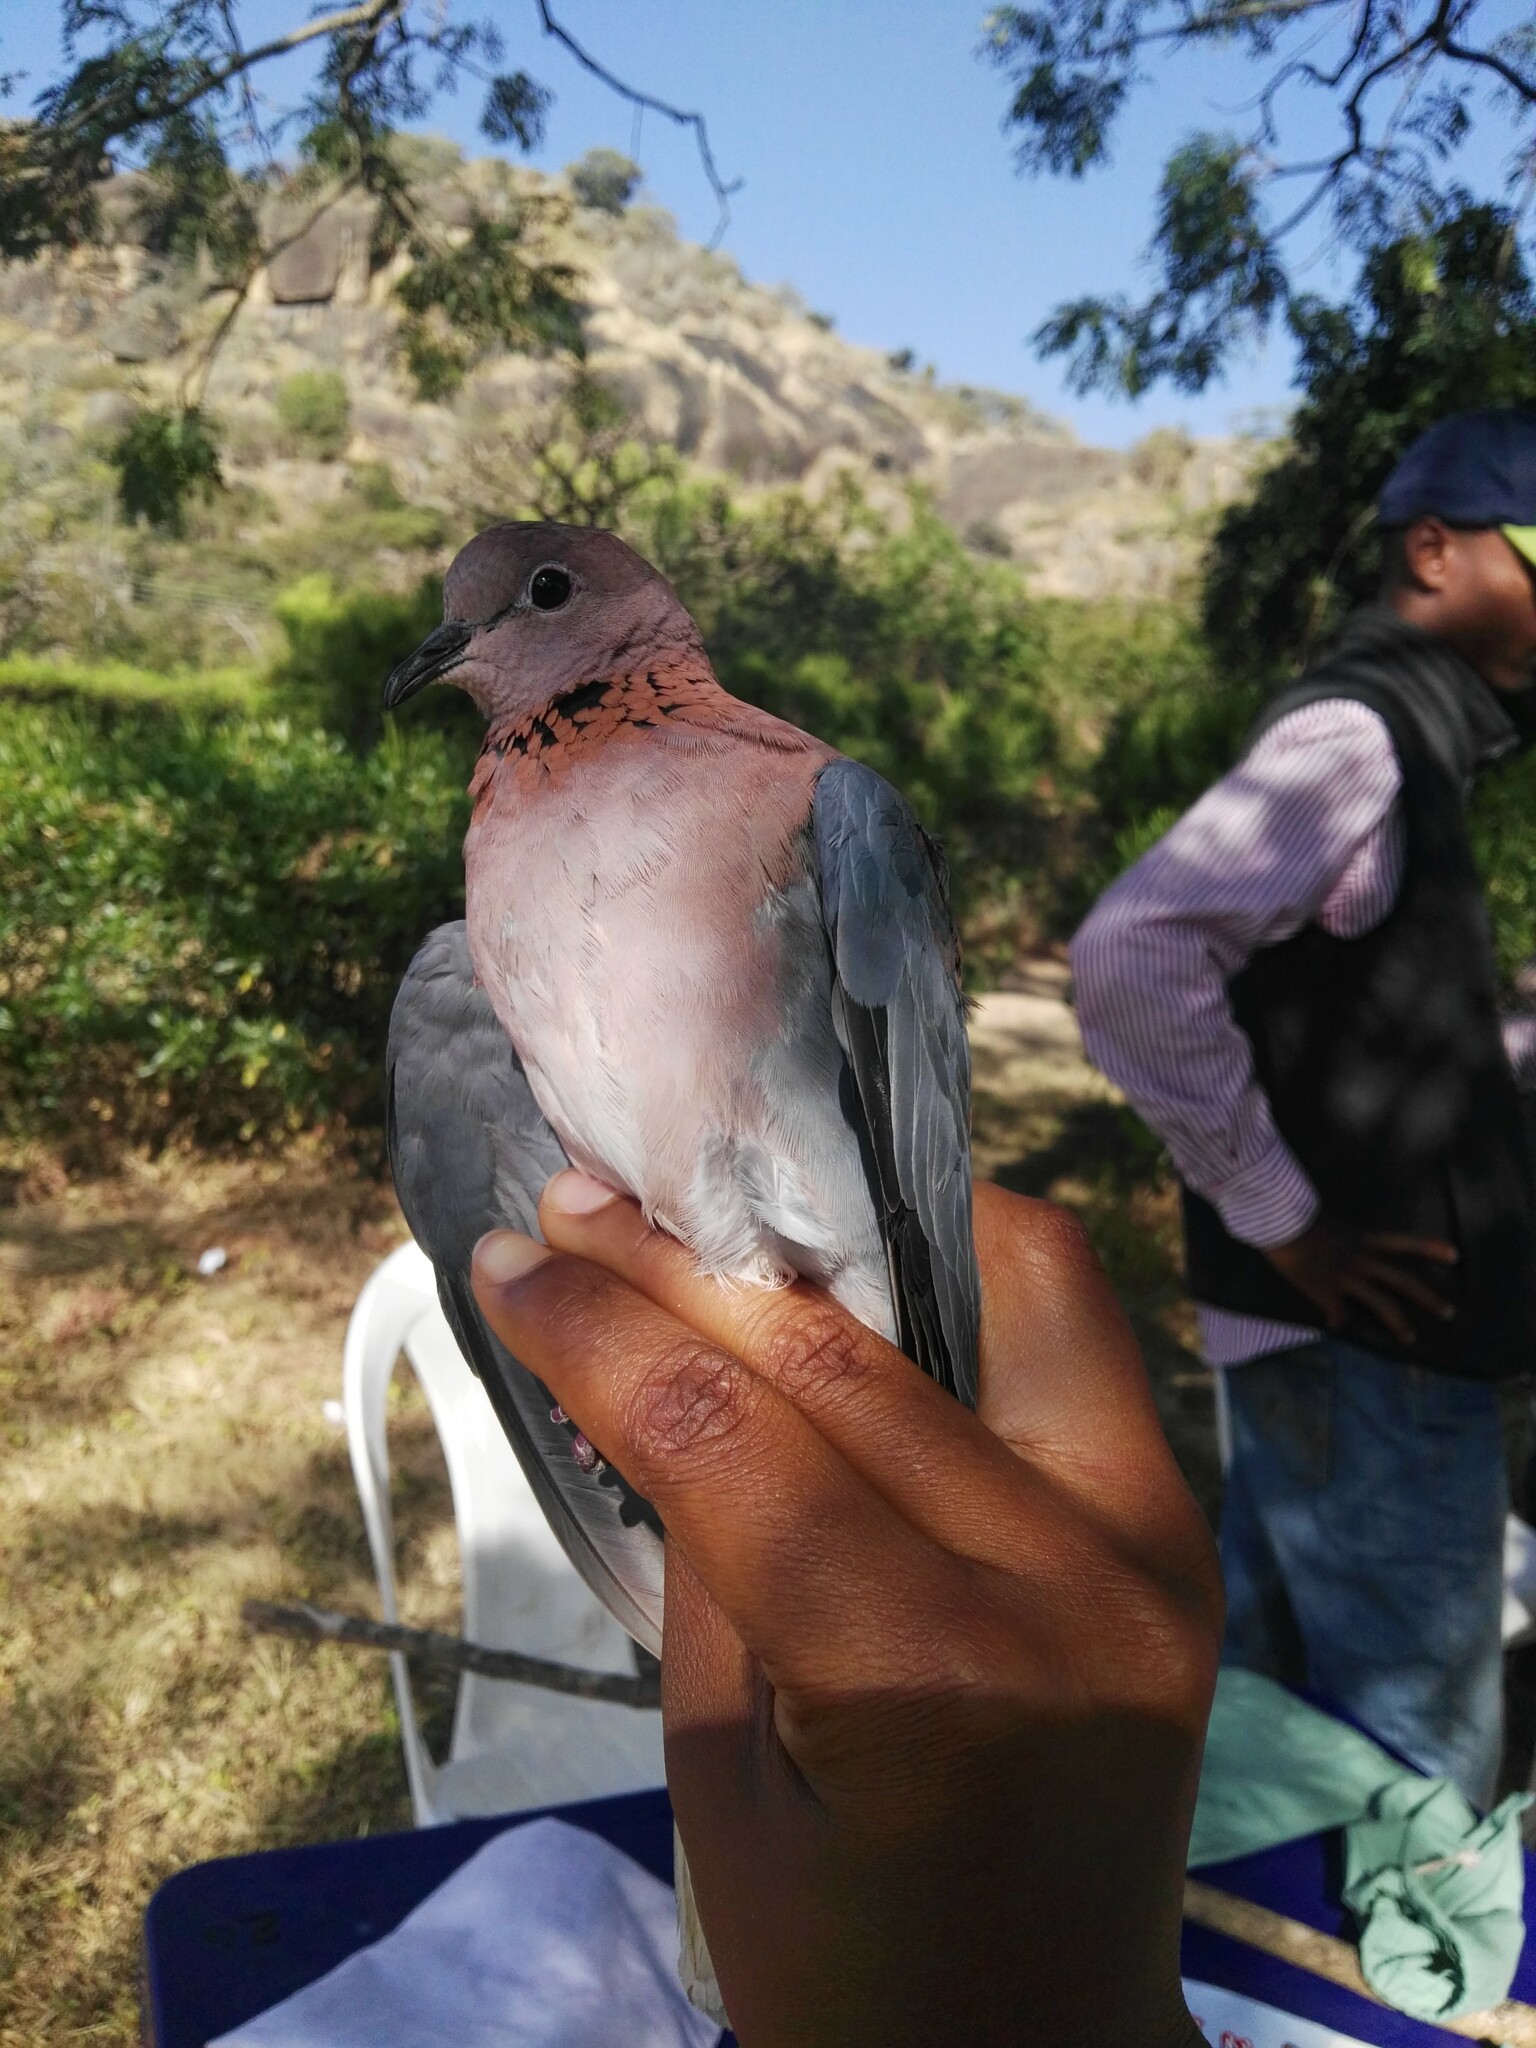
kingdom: Animalia
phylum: Chordata
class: Aves
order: Columbiformes
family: Columbidae
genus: Spilopelia
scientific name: Spilopelia senegalensis
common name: Laughing dove
